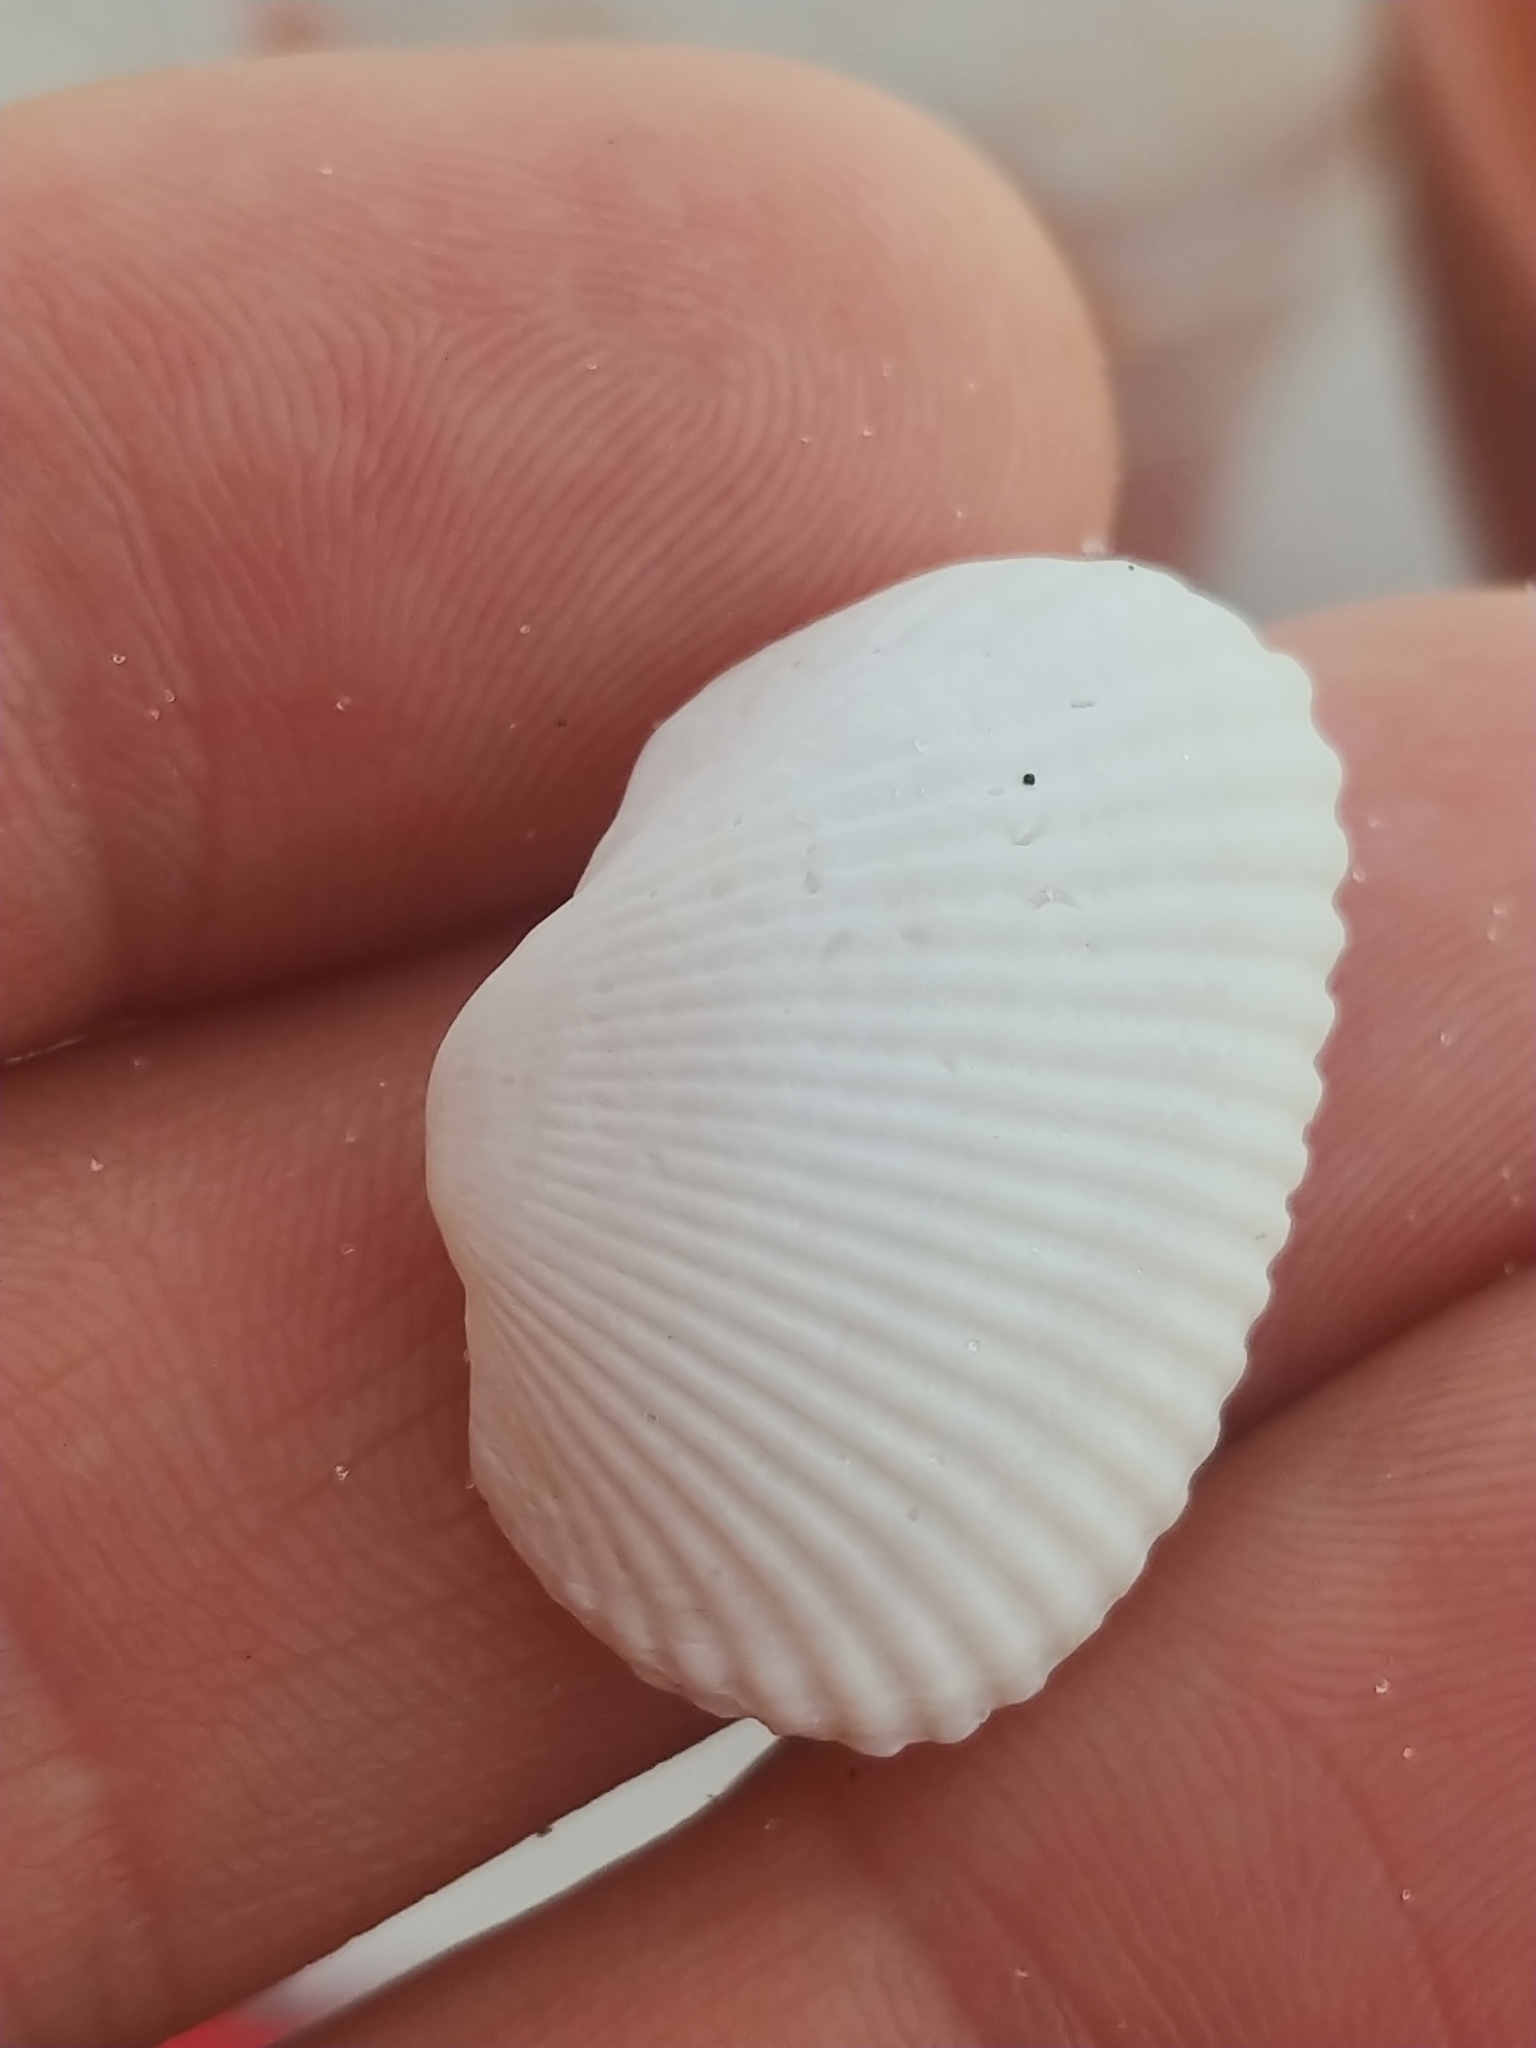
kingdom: Animalia
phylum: Mollusca
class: Bivalvia
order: Arcida
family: Arcidae
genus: Anadara
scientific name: Anadara transversa
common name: Transverse ark
